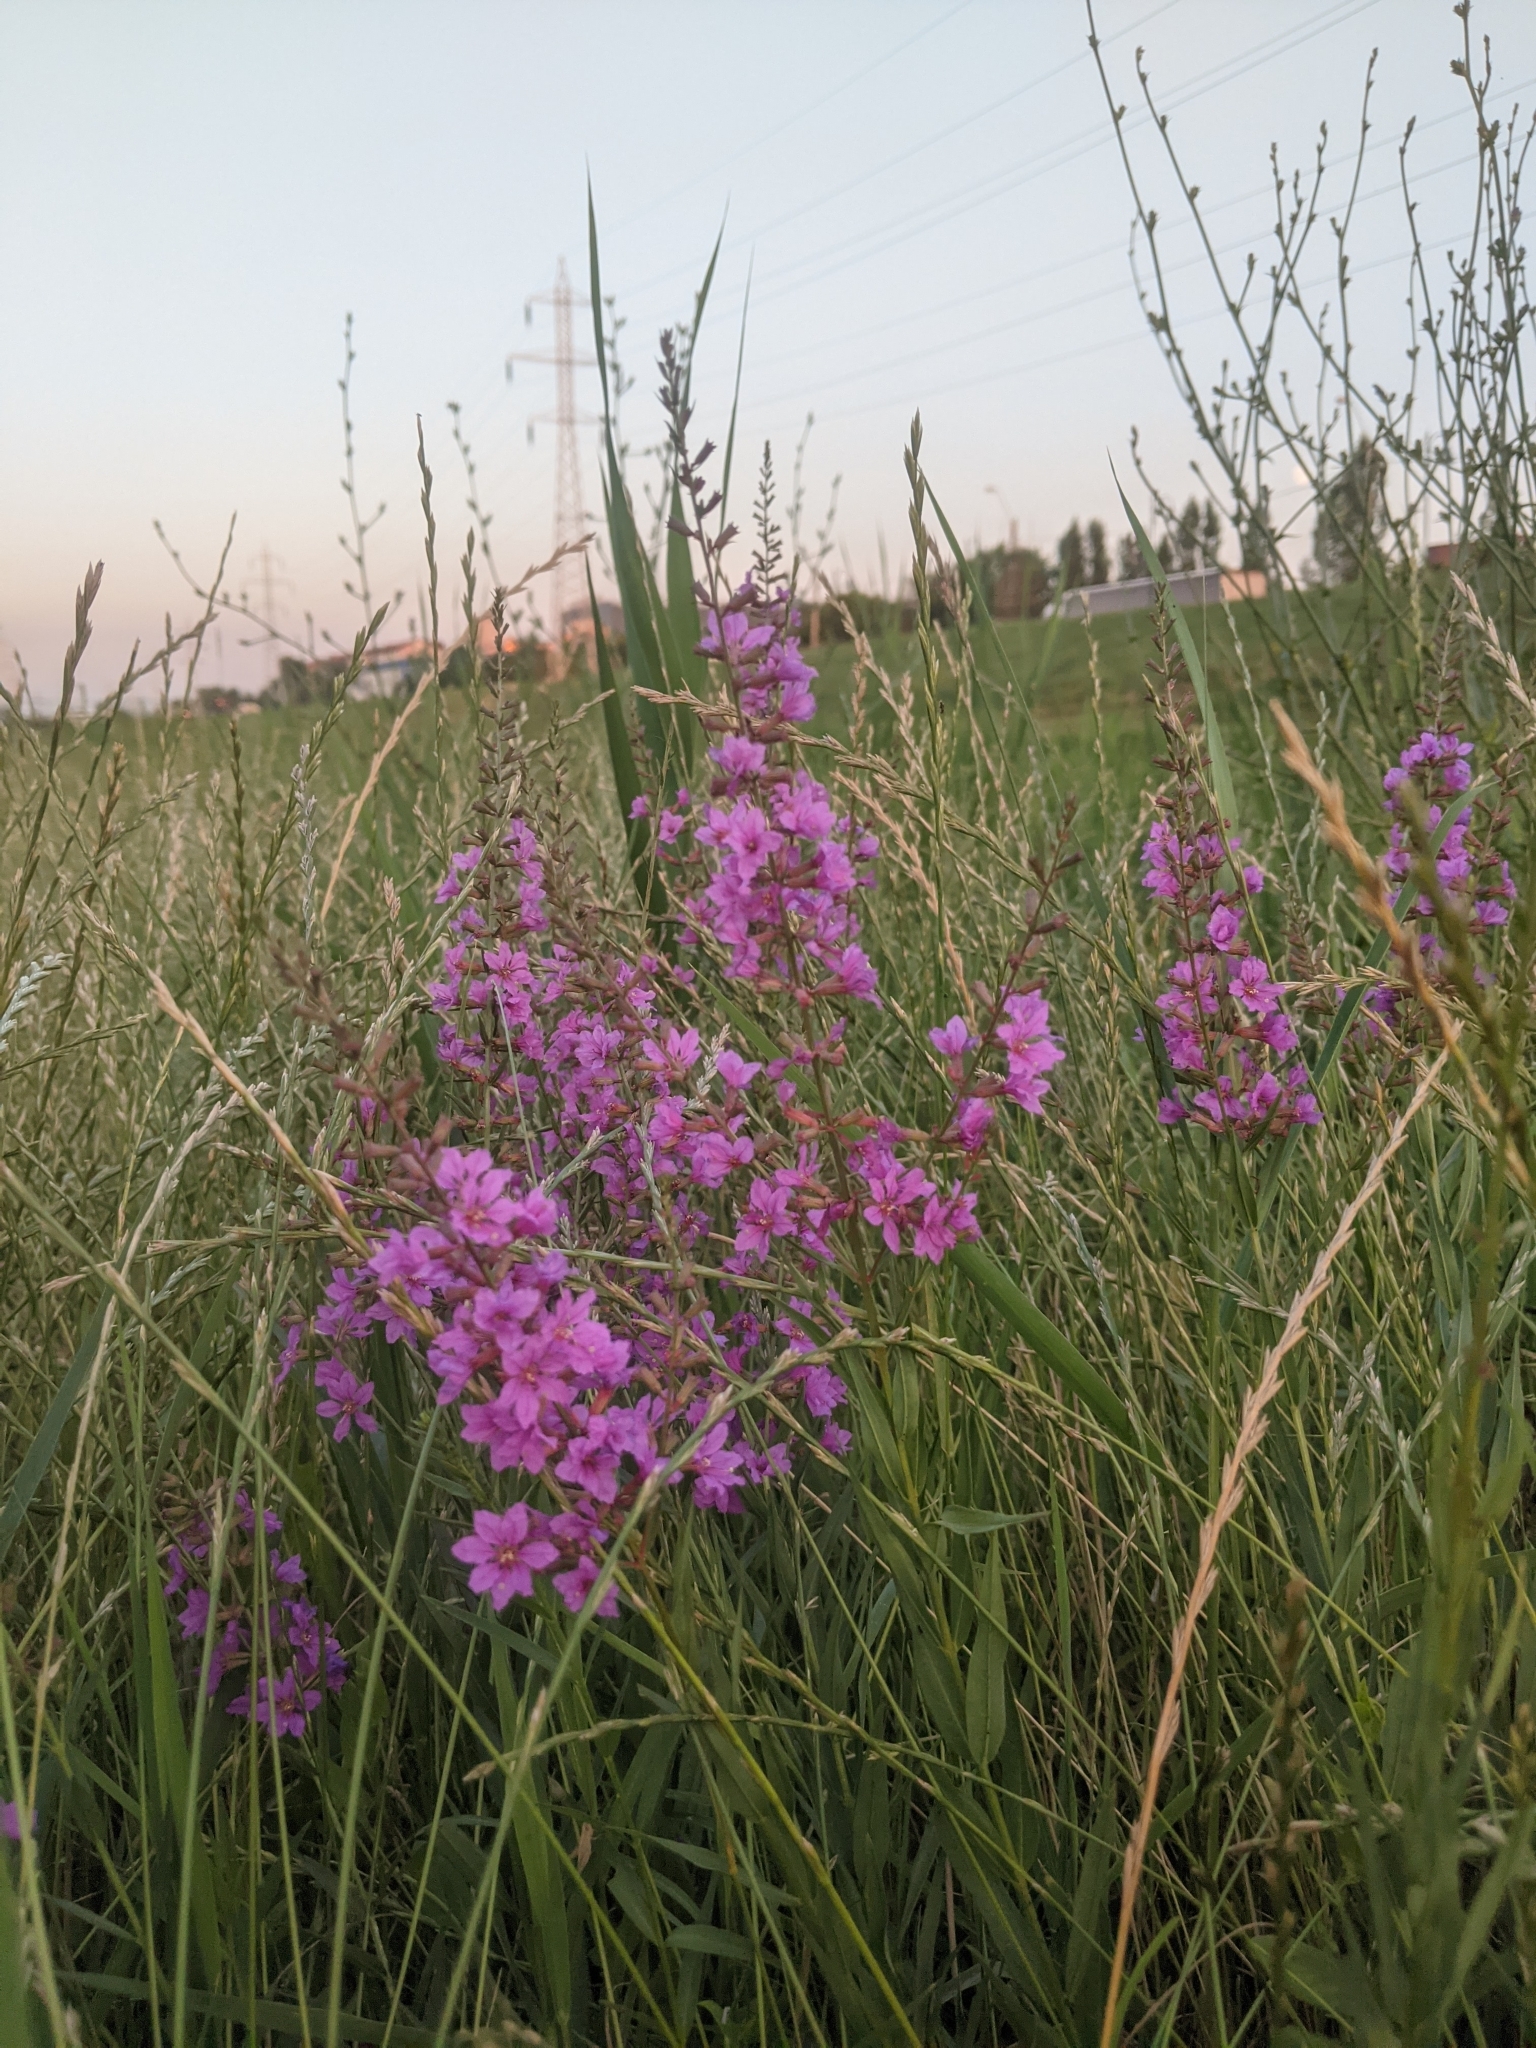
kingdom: Plantae
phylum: Tracheophyta
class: Magnoliopsida
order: Myrtales
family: Lythraceae
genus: Lythrum
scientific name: Lythrum salicaria
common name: Purple loosestrife
